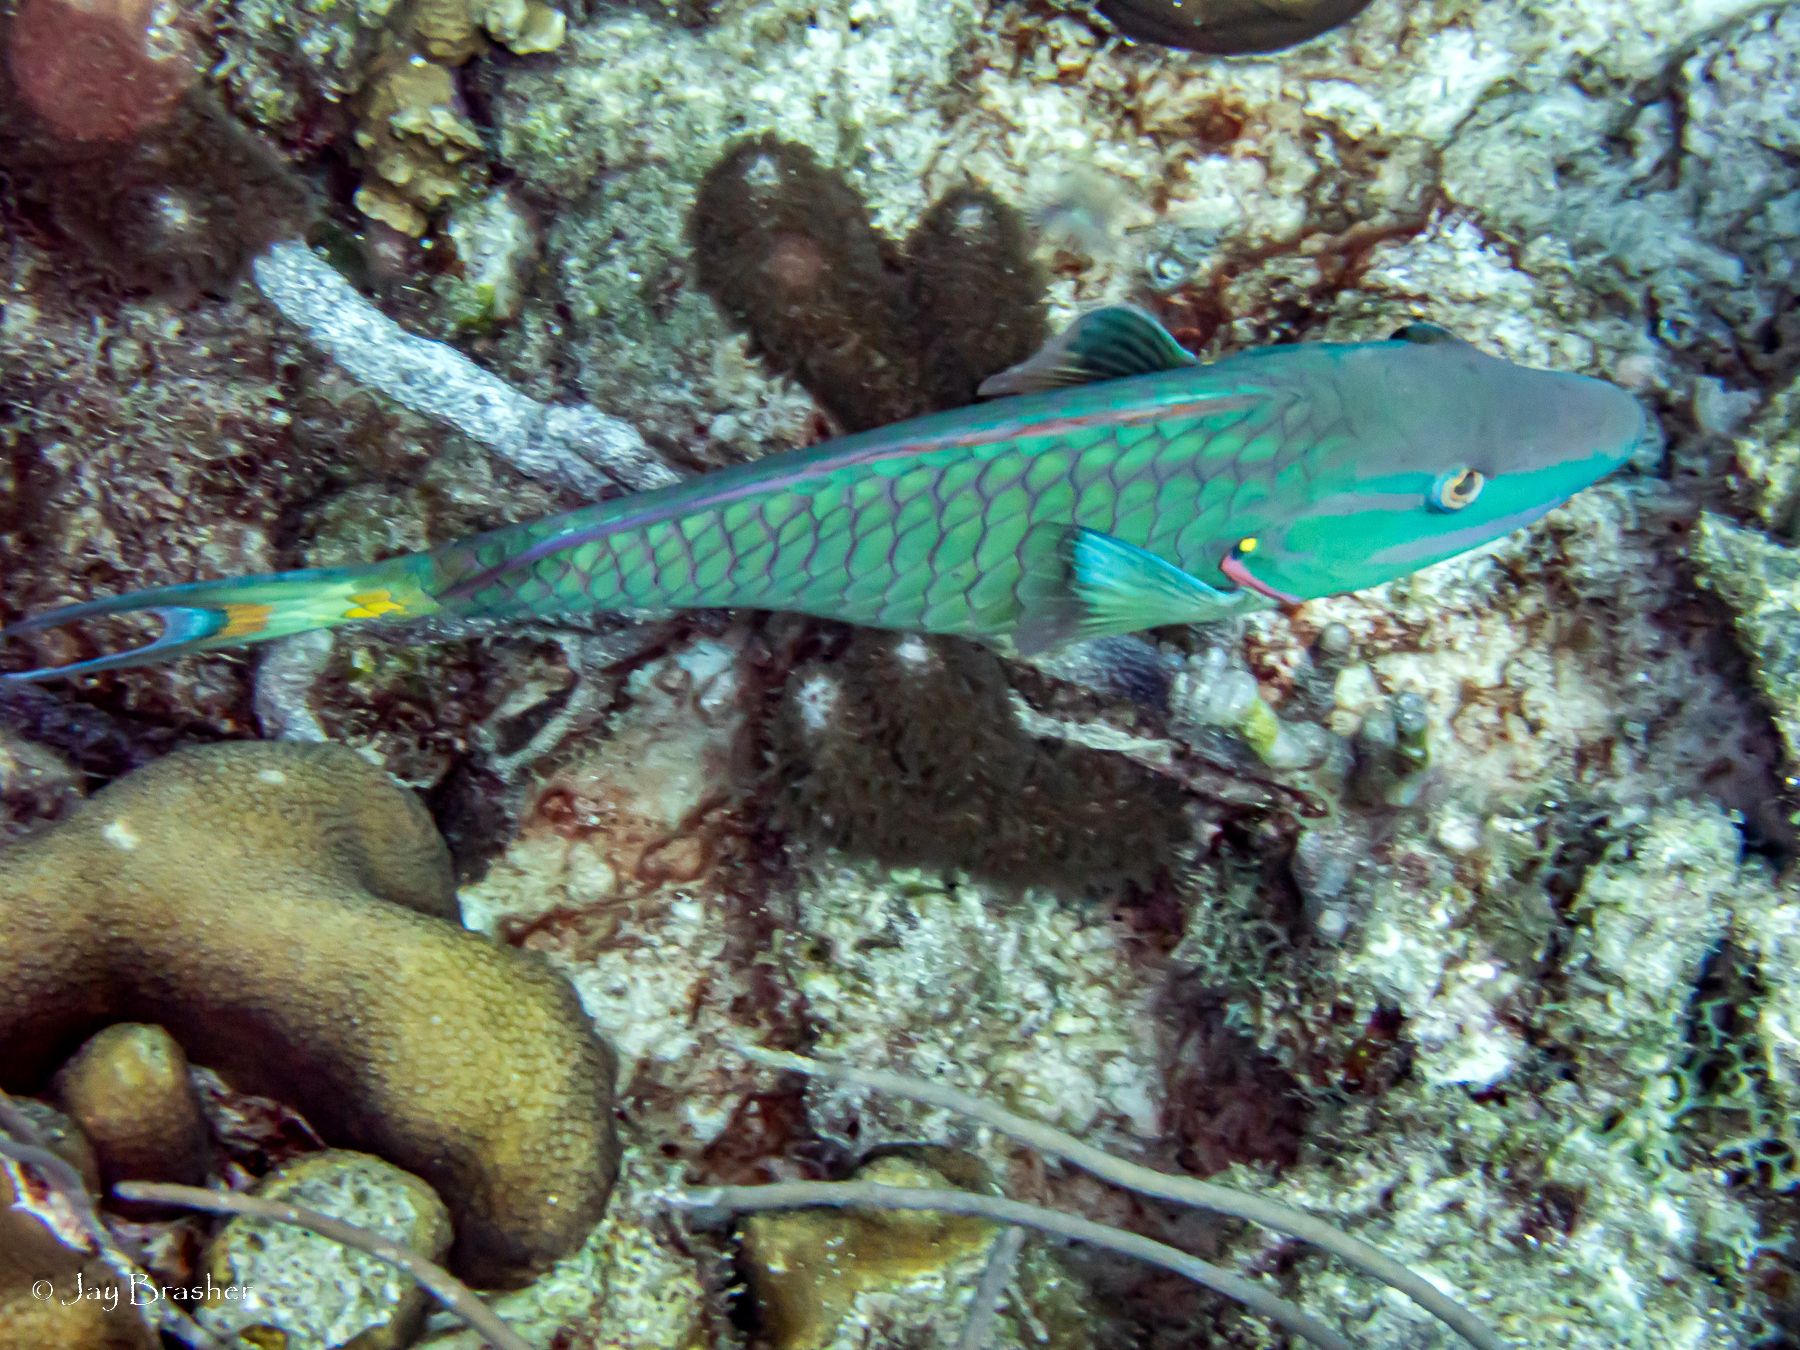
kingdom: Animalia
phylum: Cnidaria
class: Anthozoa
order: Scleralcyonacea
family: Briareidae
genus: Briareum
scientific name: Briareum asbestinum
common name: Corky sea finger
